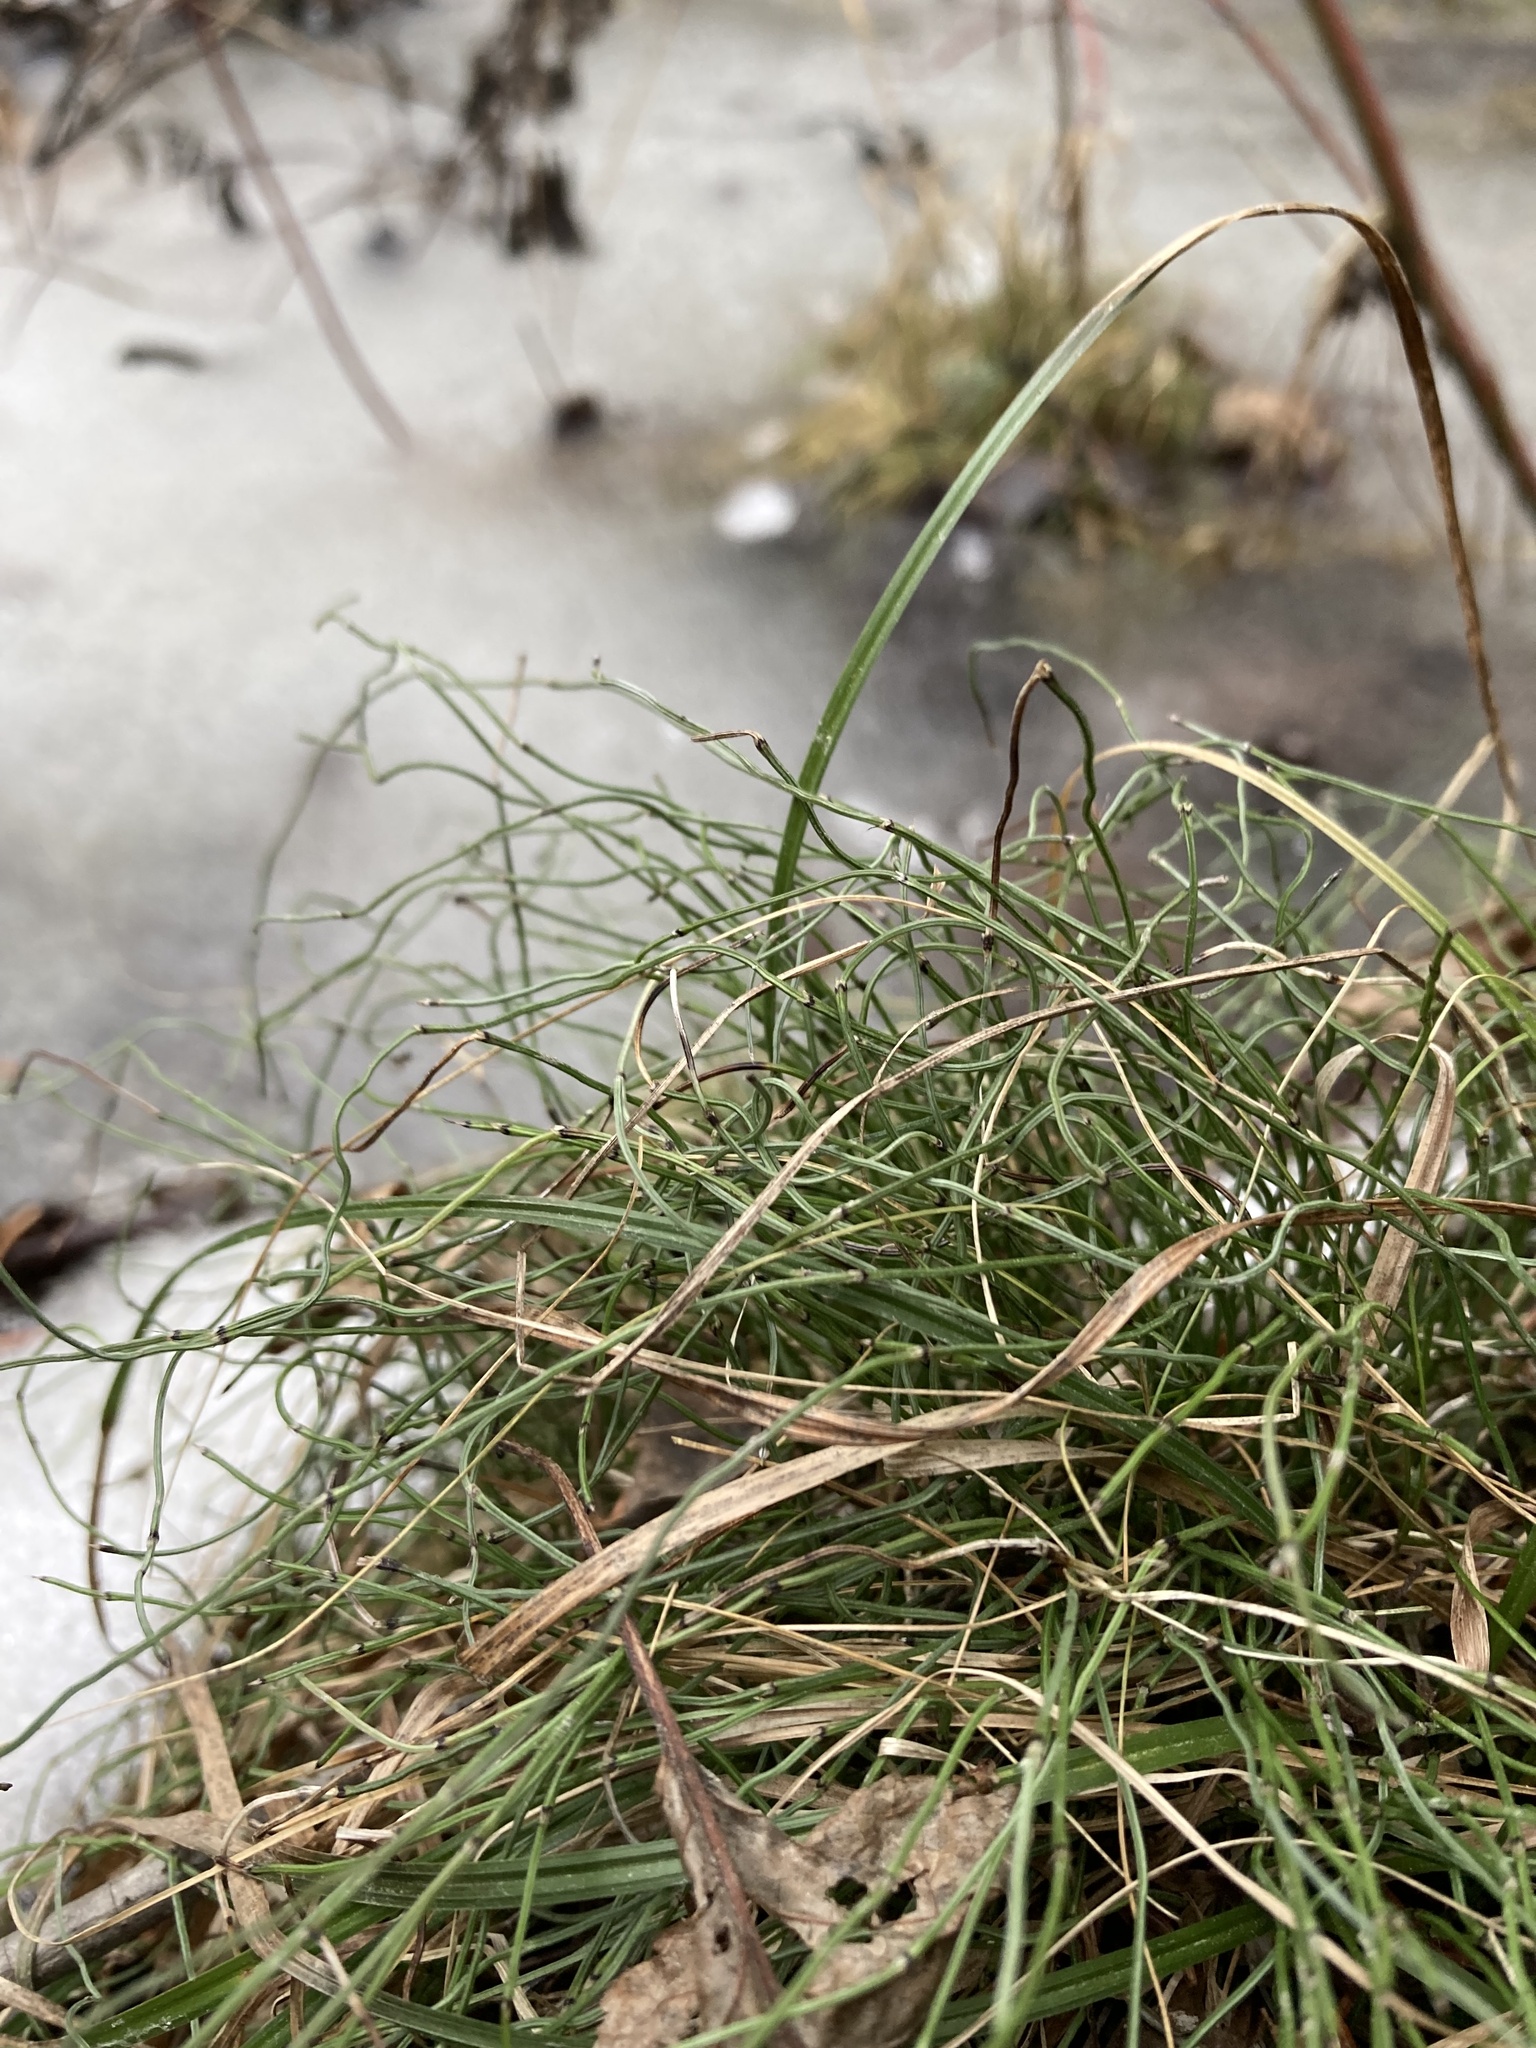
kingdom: Plantae
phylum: Tracheophyta
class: Polypodiopsida
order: Equisetales
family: Equisetaceae
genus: Equisetum
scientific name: Equisetum scirpoides
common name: Delicate horsetail
